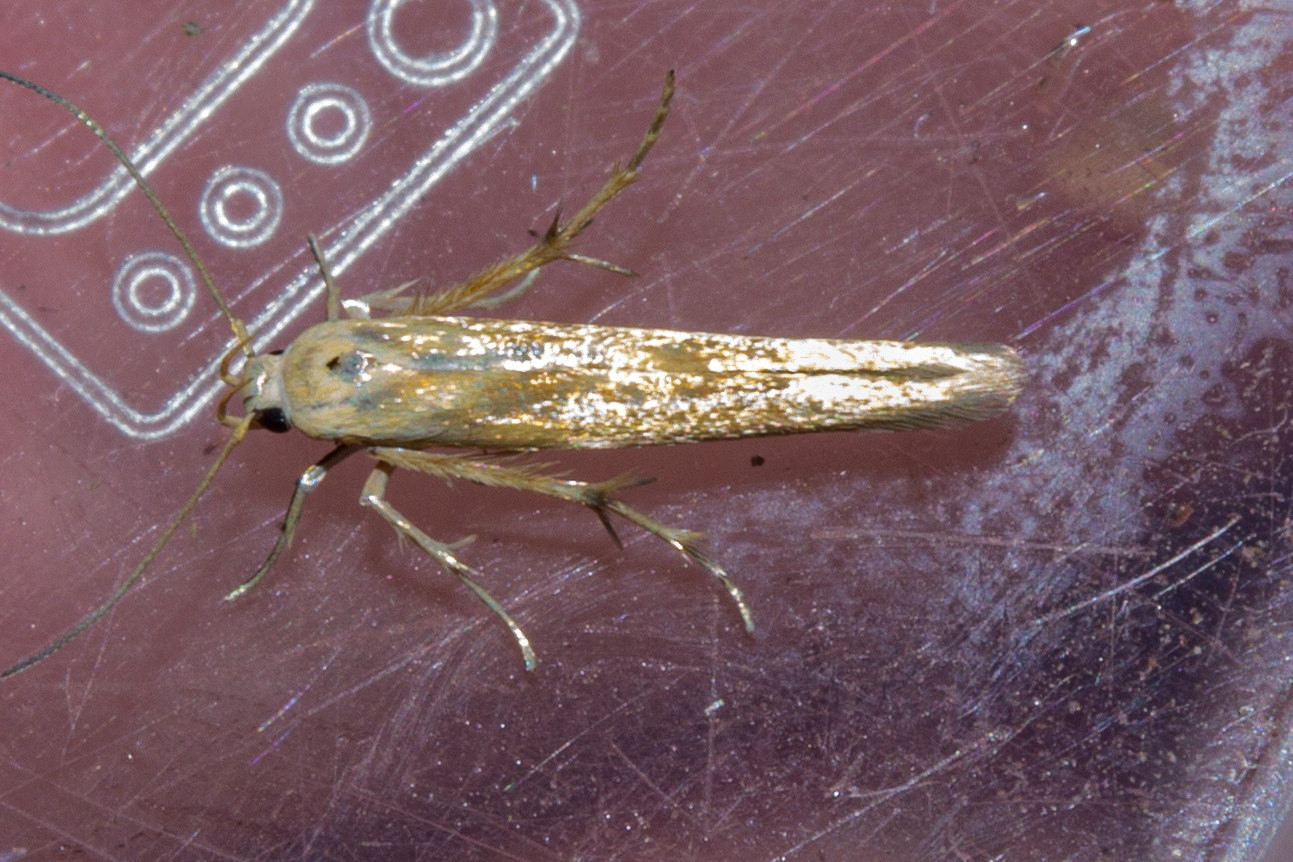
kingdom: Animalia
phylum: Arthropoda
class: Insecta
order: Lepidoptera
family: Stathmopodidae
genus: Stathmopoda
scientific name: Stathmopoda horticola
